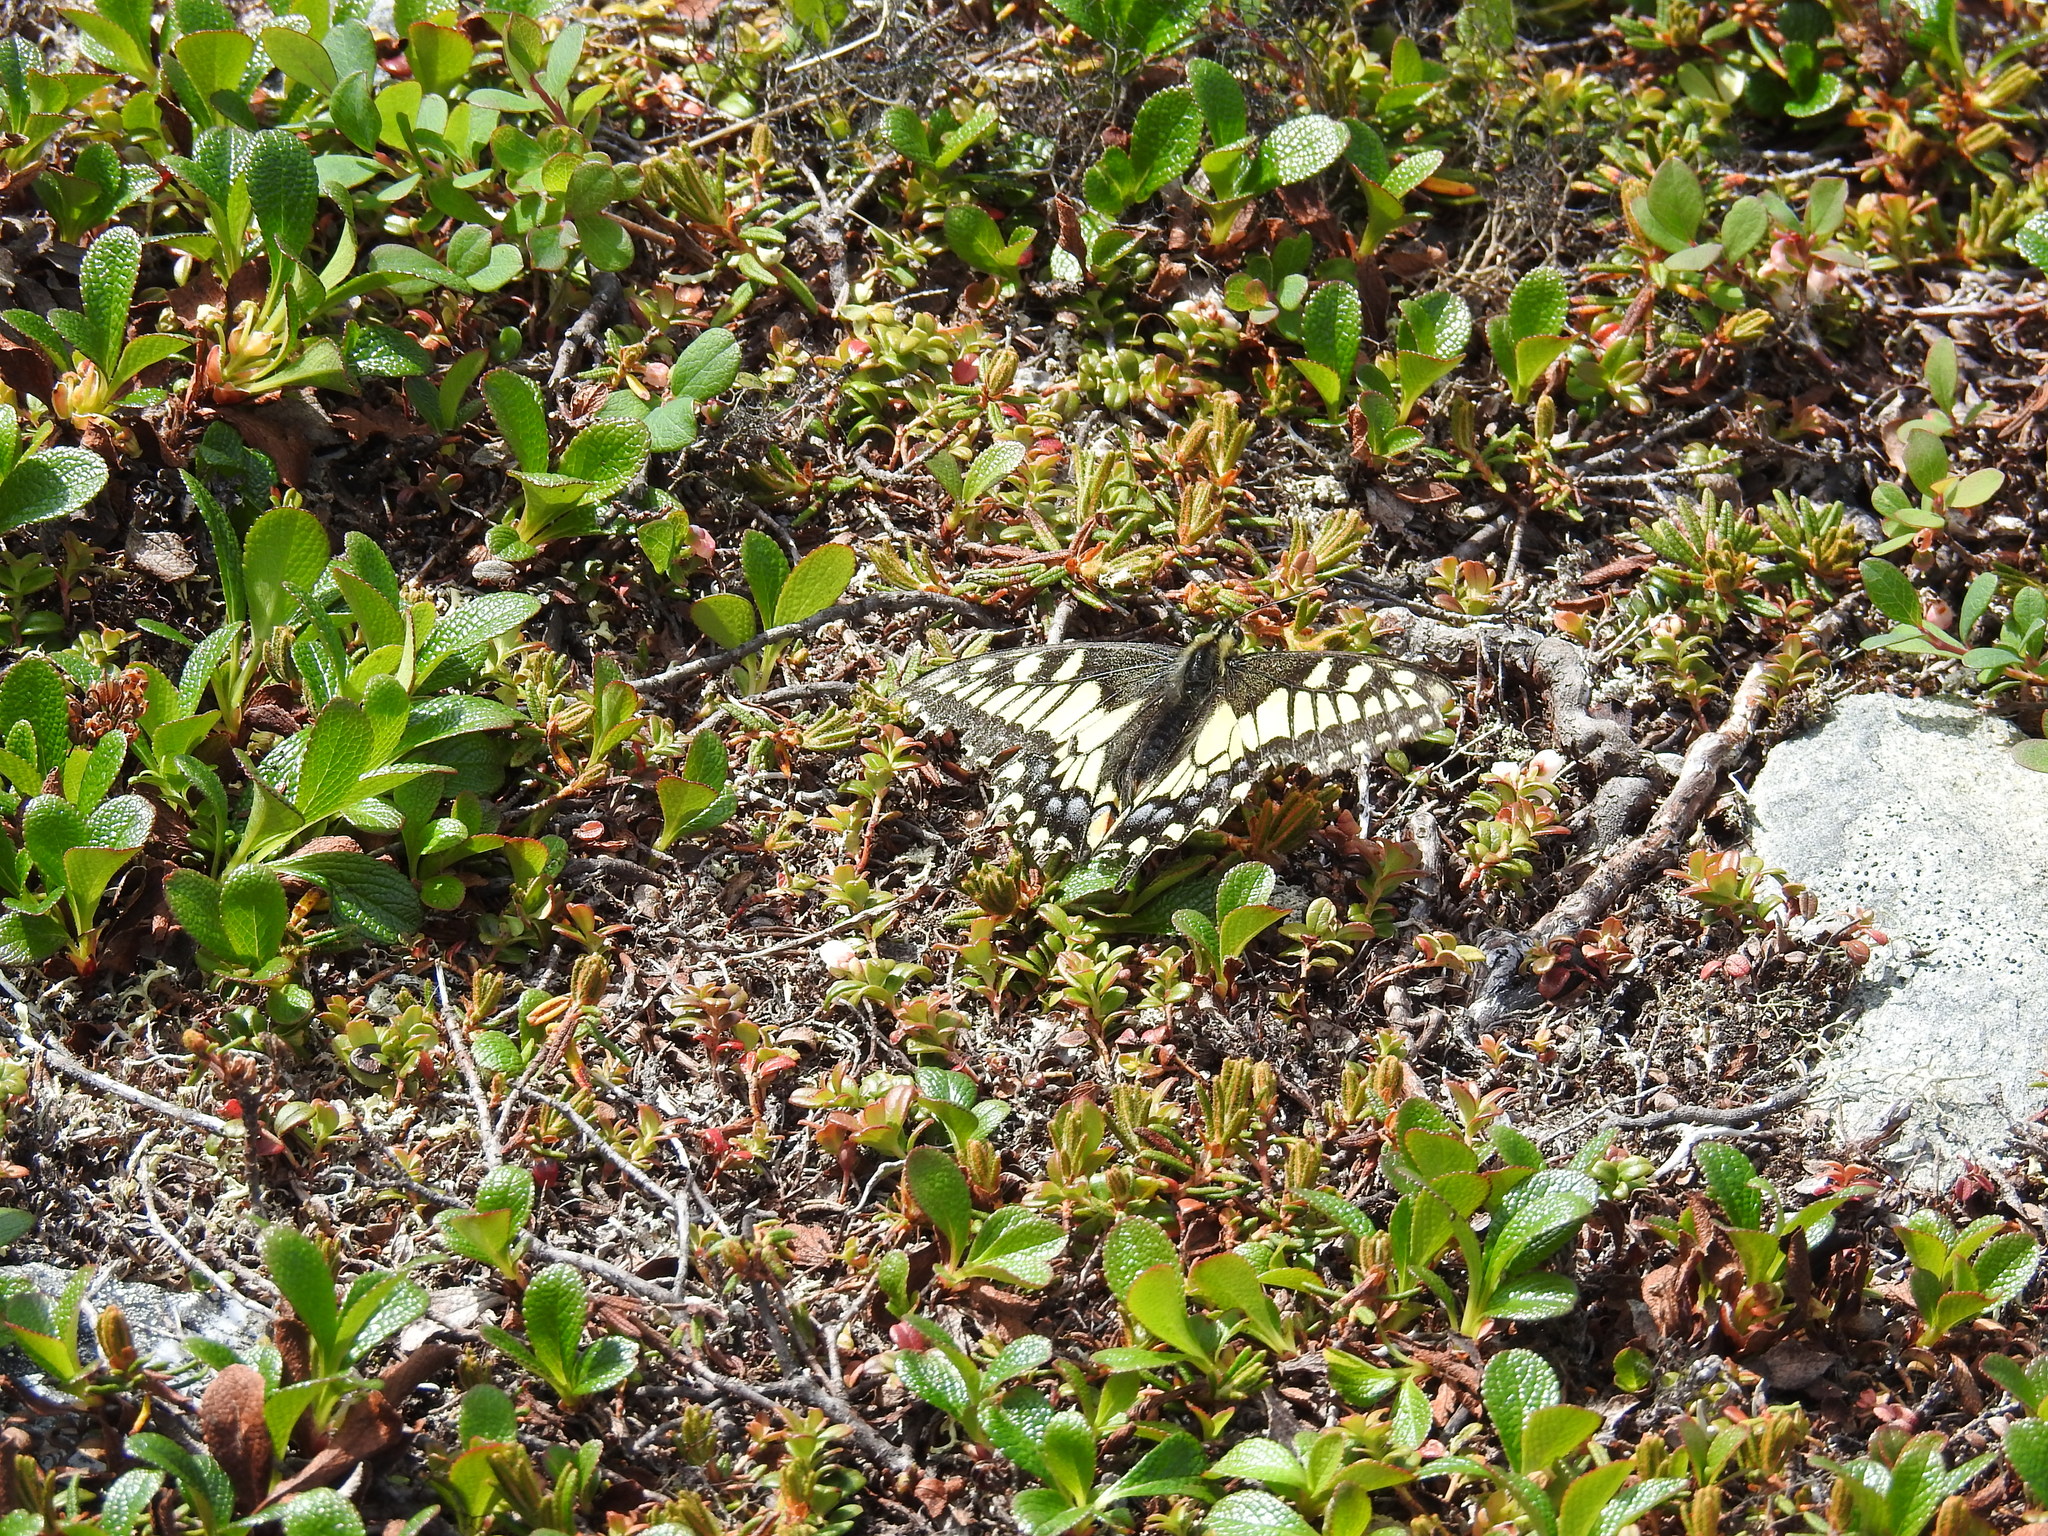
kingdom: Animalia
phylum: Arthropoda
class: Insecta
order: Lepidoptera
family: Papilionidae
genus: Papilio
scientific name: Papilio machaon
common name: Swallowtail
